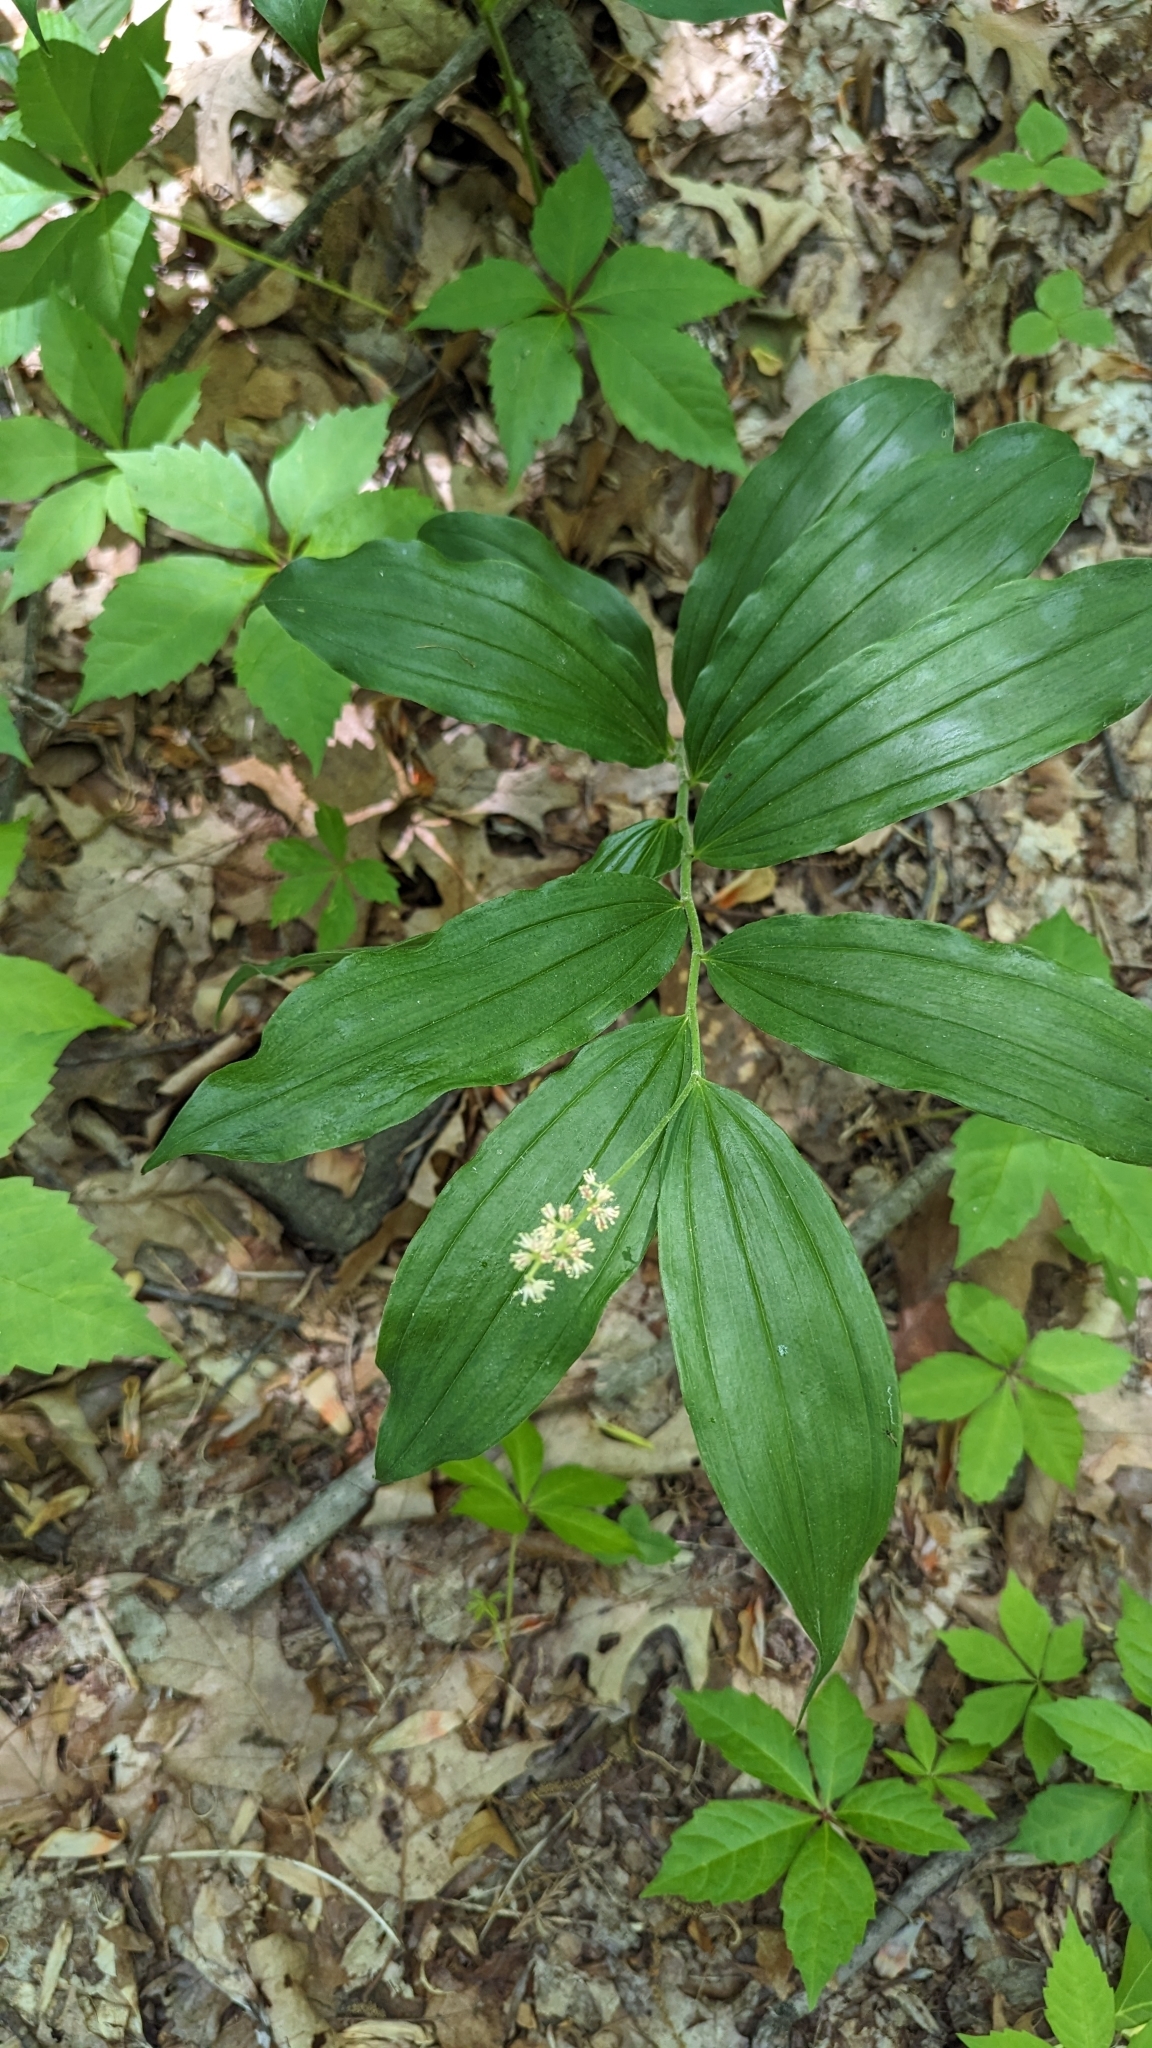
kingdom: Plantae
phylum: Tracheophyta
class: Liliopsida
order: Asparagales
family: Asparagaceae
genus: Maianthemum
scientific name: Maianthemum racemosum
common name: False spikenard
